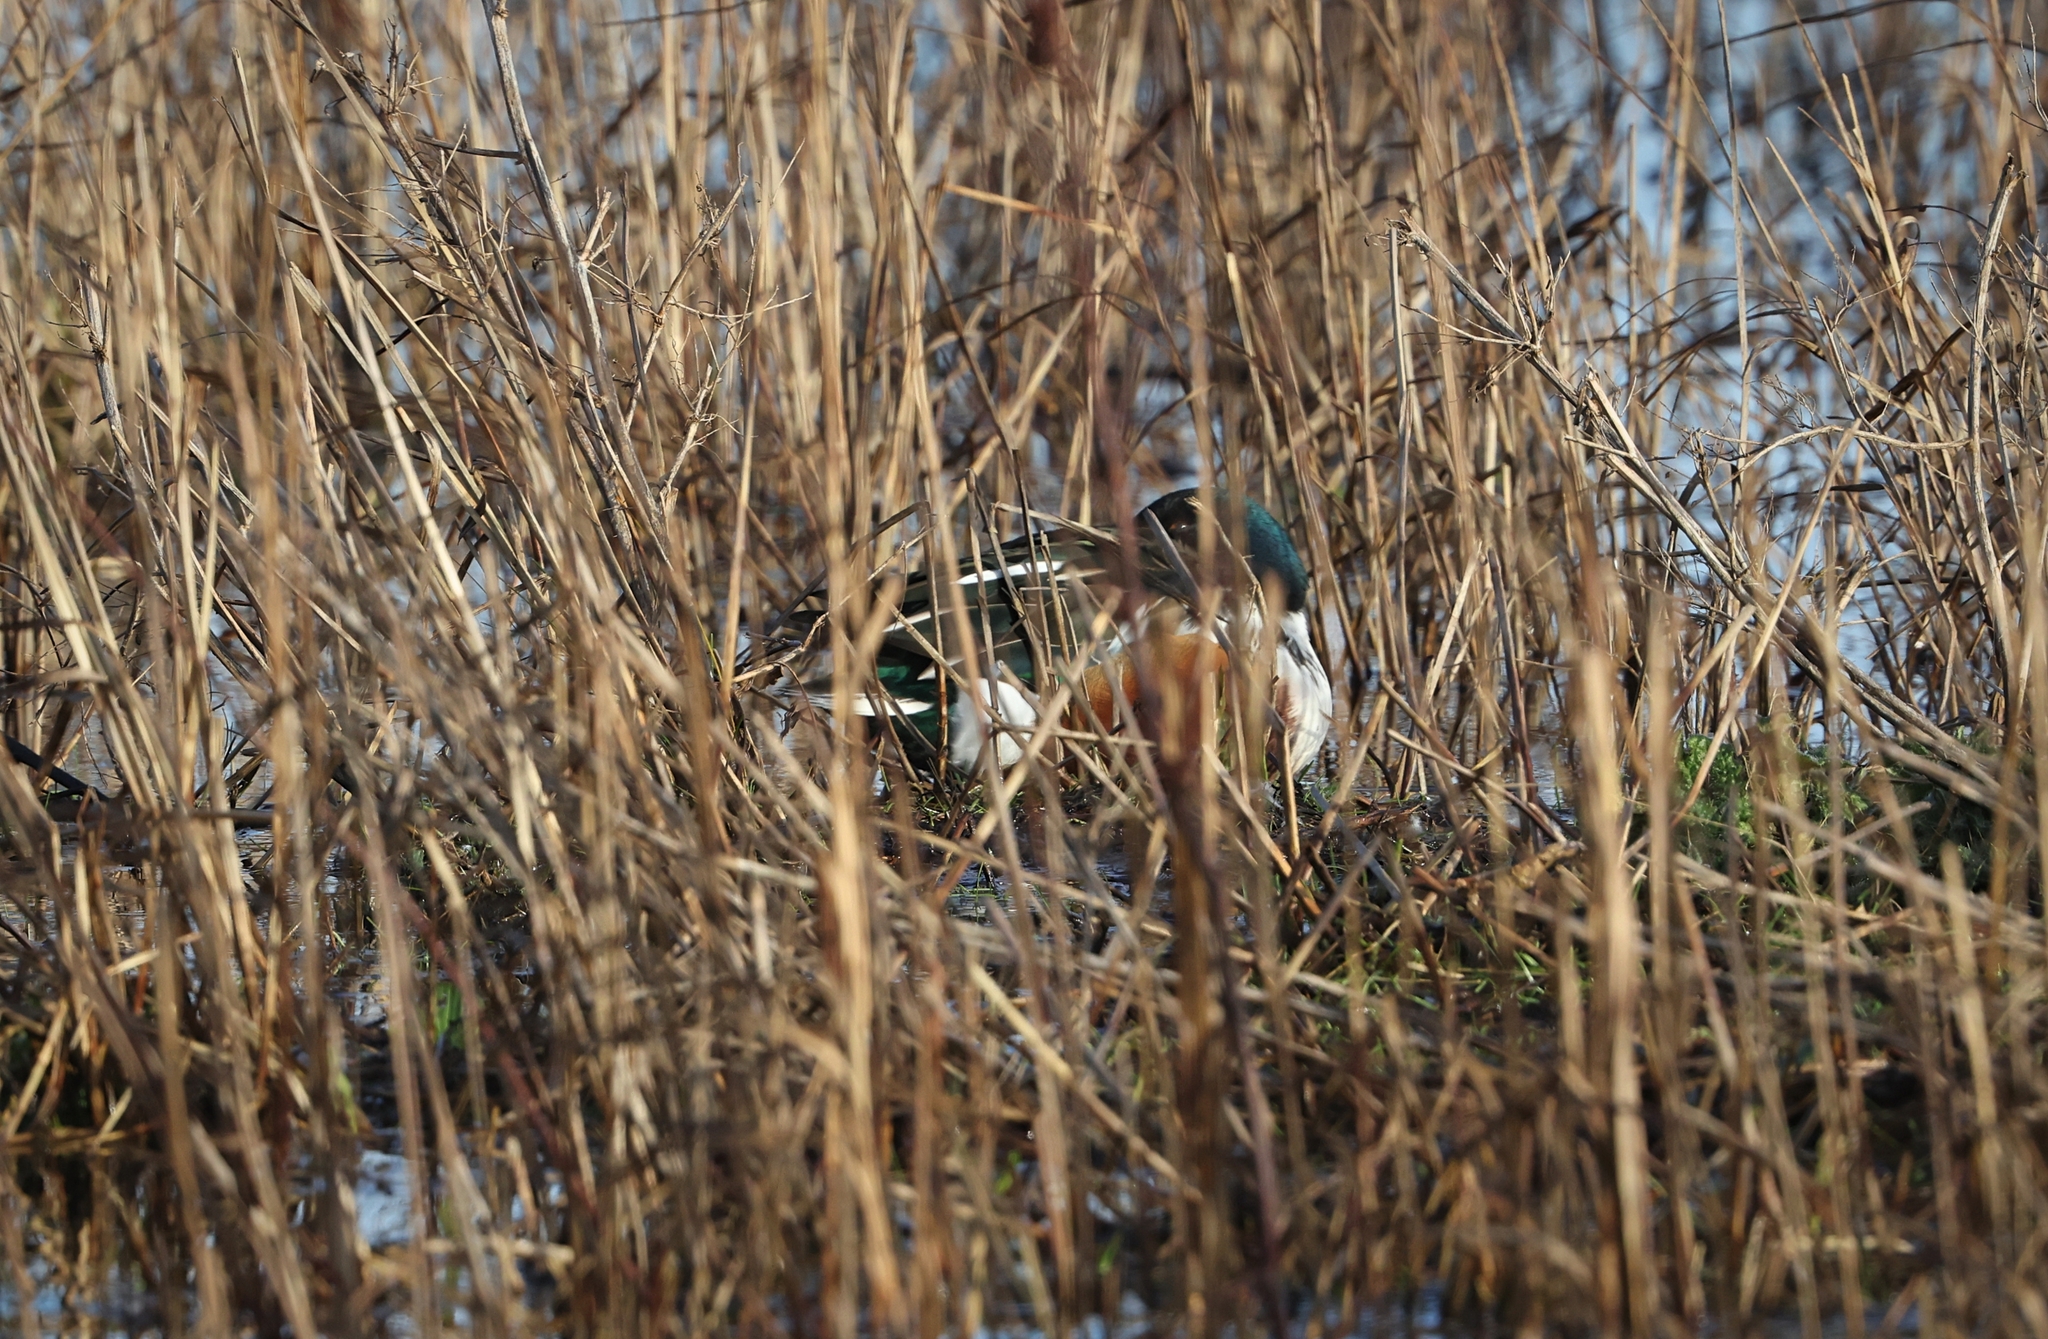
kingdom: Animalia
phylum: Chordata
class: Aves
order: Anseriformes
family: Anatidae
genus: Spatula
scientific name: Spatula clypeata
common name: Northern shoveler
